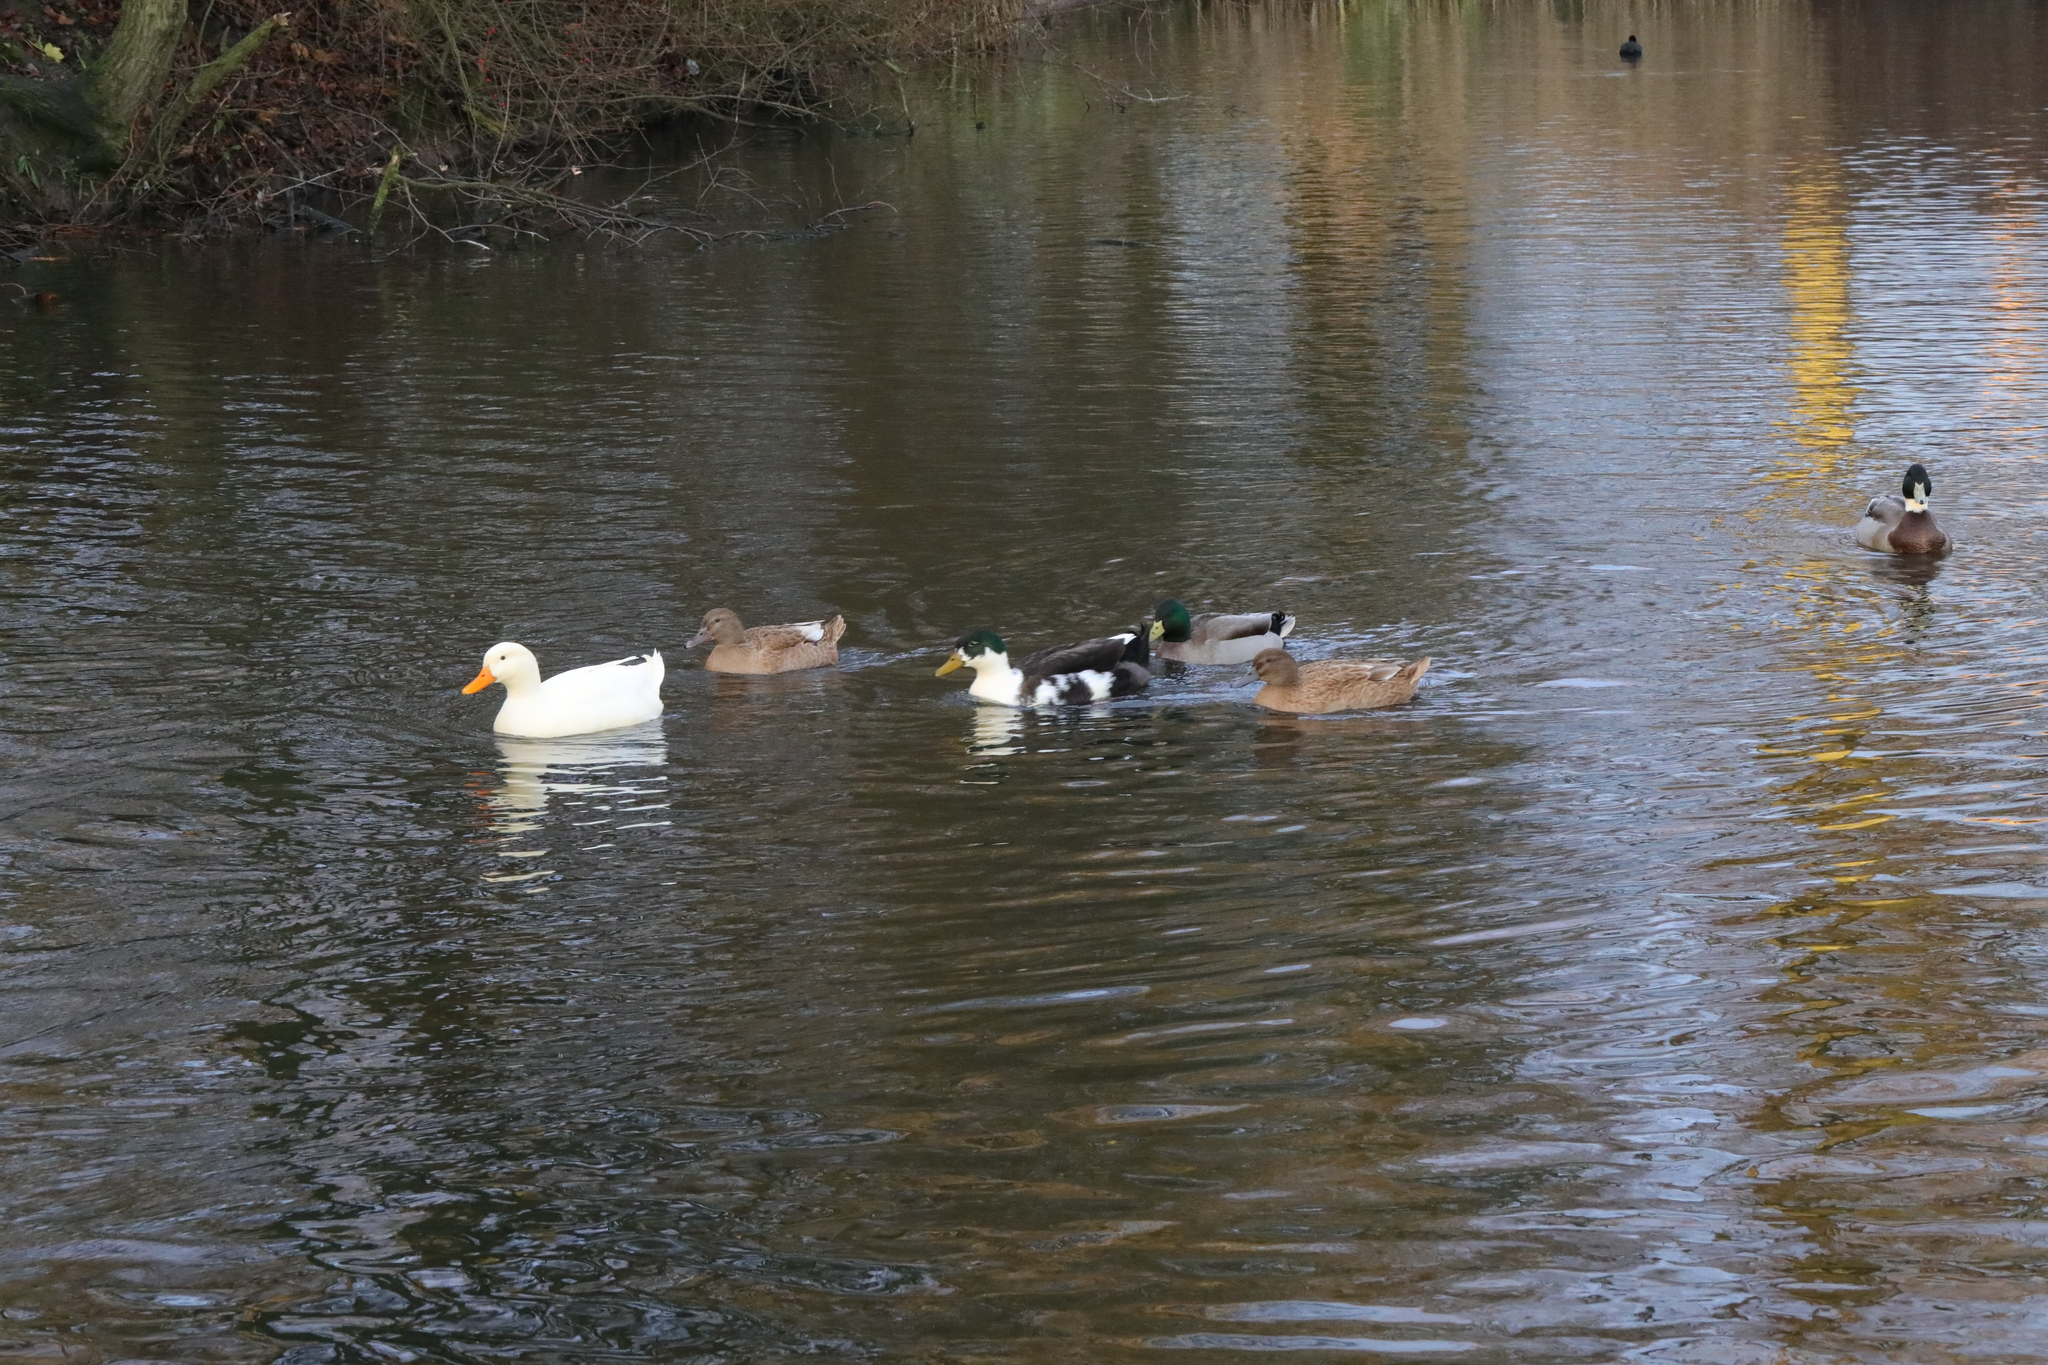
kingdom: Animalia
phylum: Chordata
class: Aves
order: Anseriformes
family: Anatidae
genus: Anas
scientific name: Anas platyrhynchos
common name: Mallard
